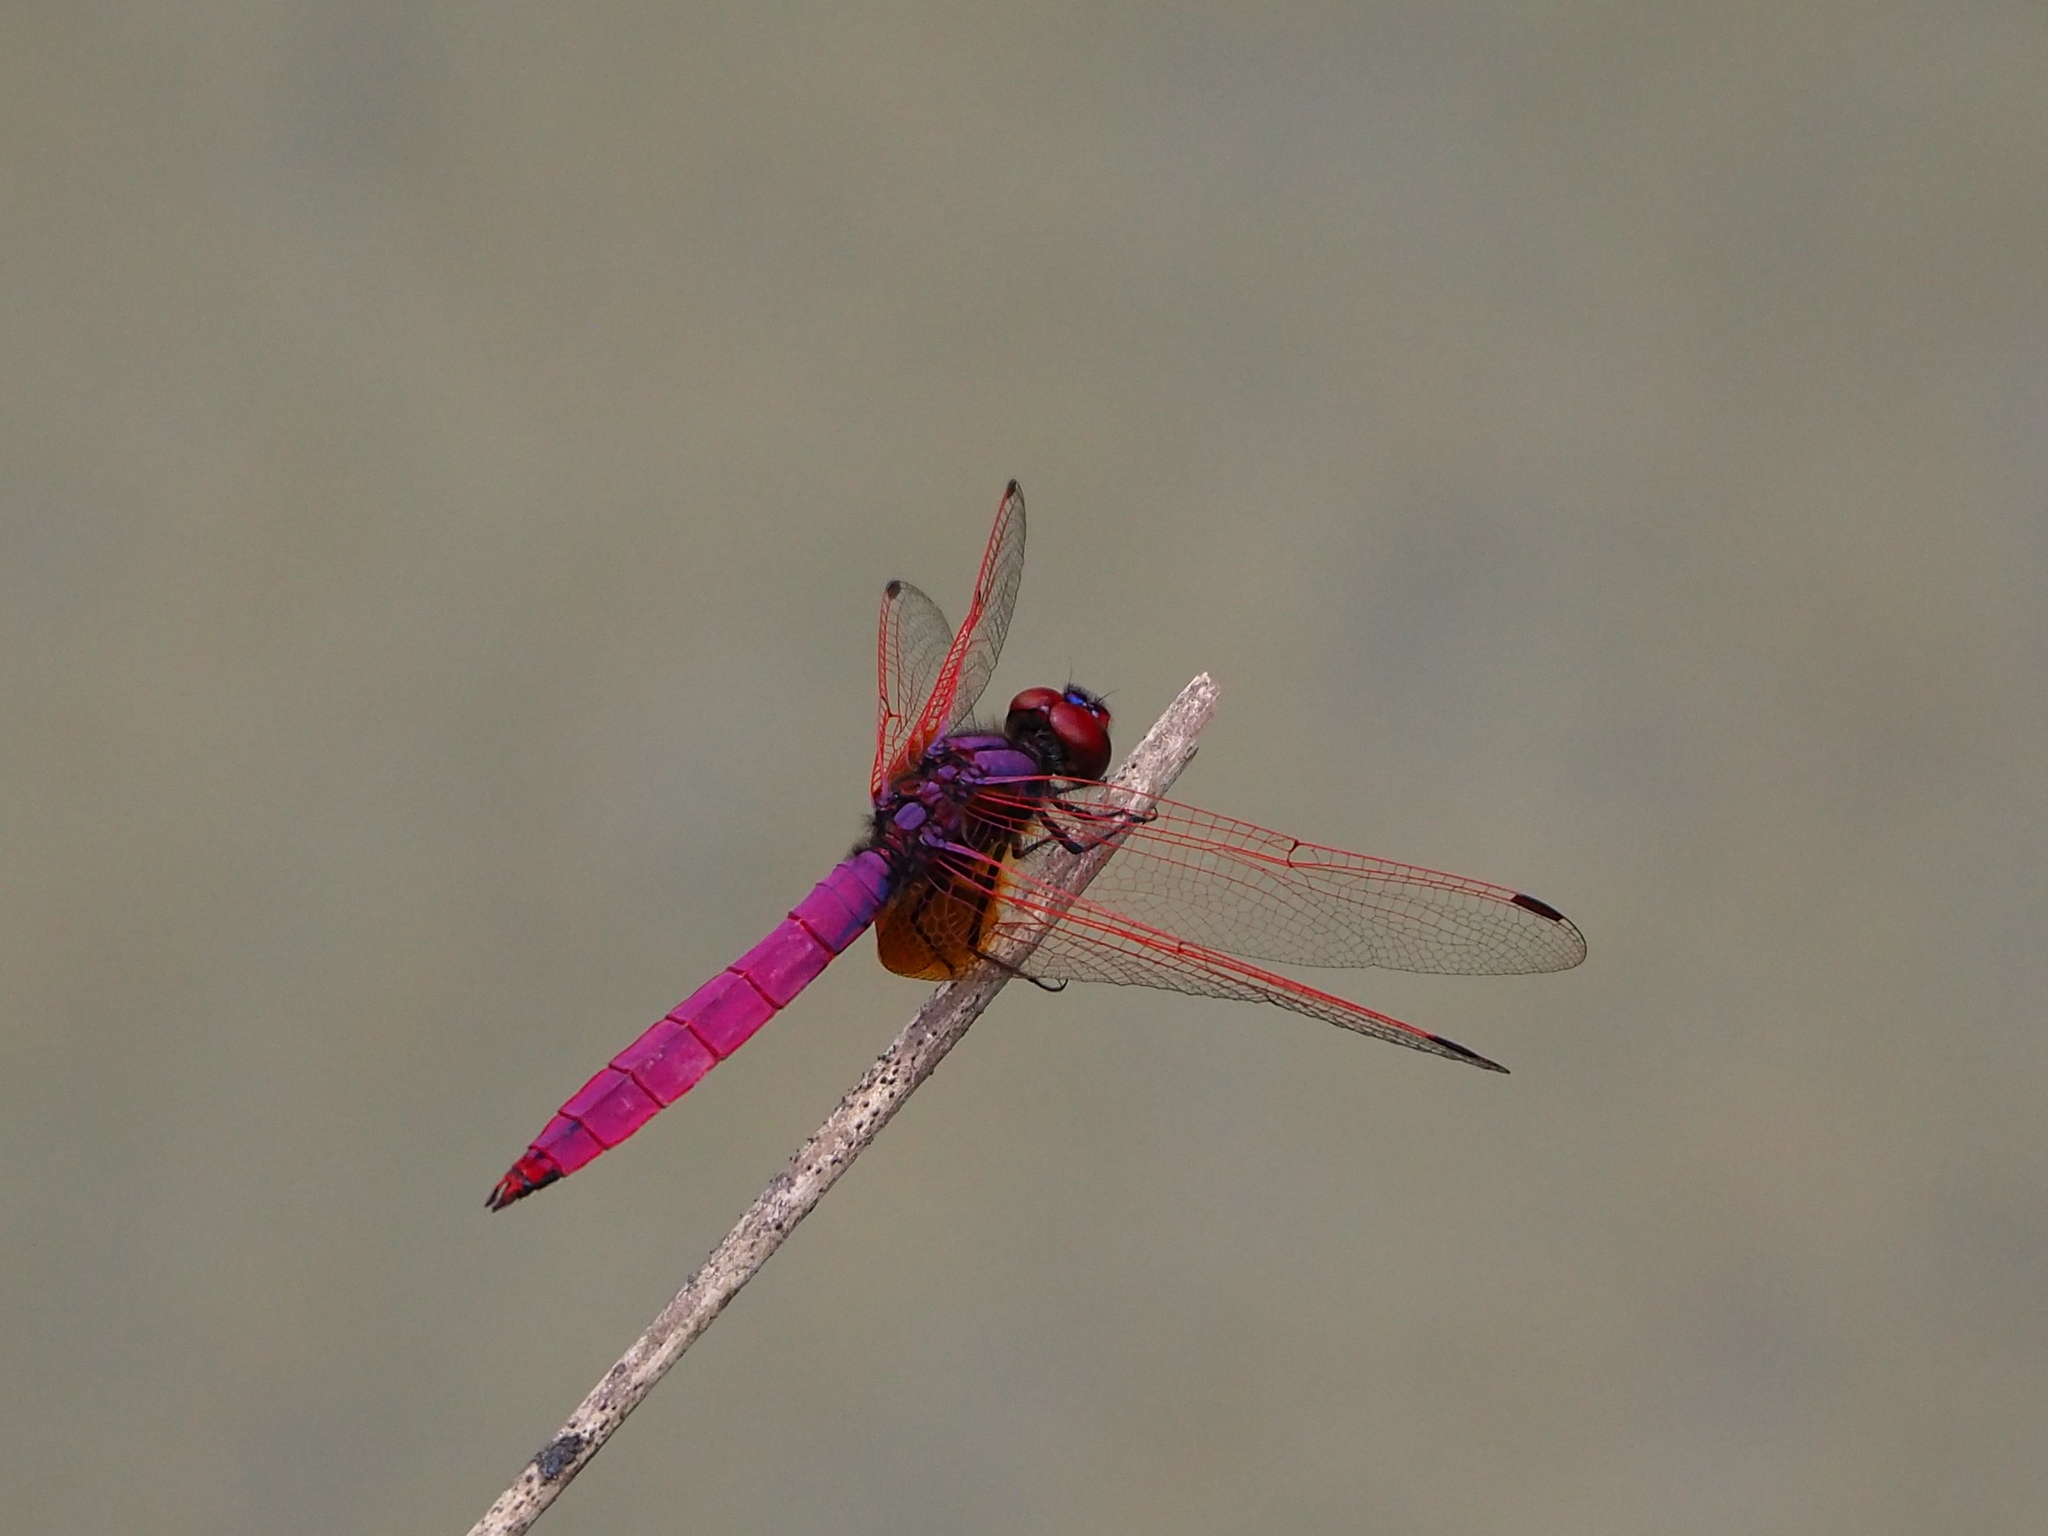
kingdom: Animalia
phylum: Arthropoda
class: Insecta
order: Odonata
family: Libellulidae
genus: Trithemis
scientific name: Trithemis aurora
